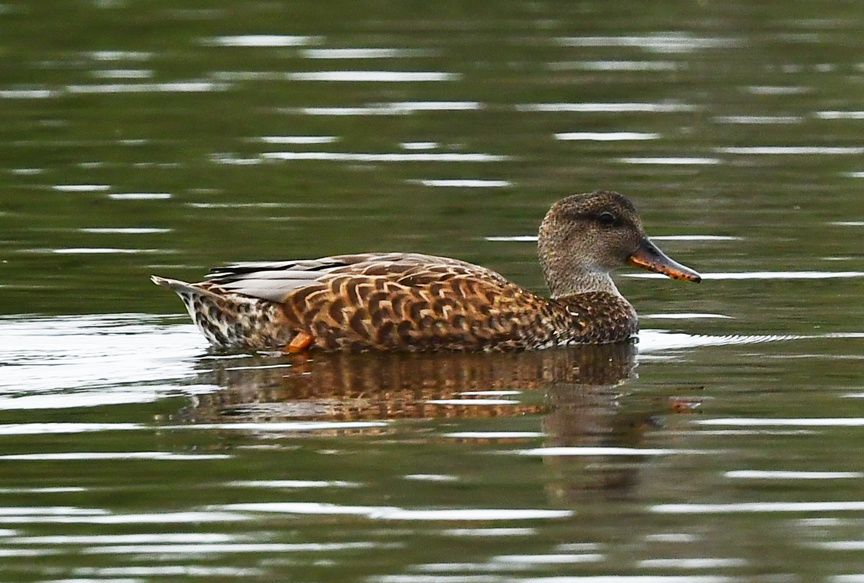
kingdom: Animalia
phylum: Chordata
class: Aves
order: Anseriformes
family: Anatidae
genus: Mareca
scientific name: Mareca strepera
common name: Gadwall
